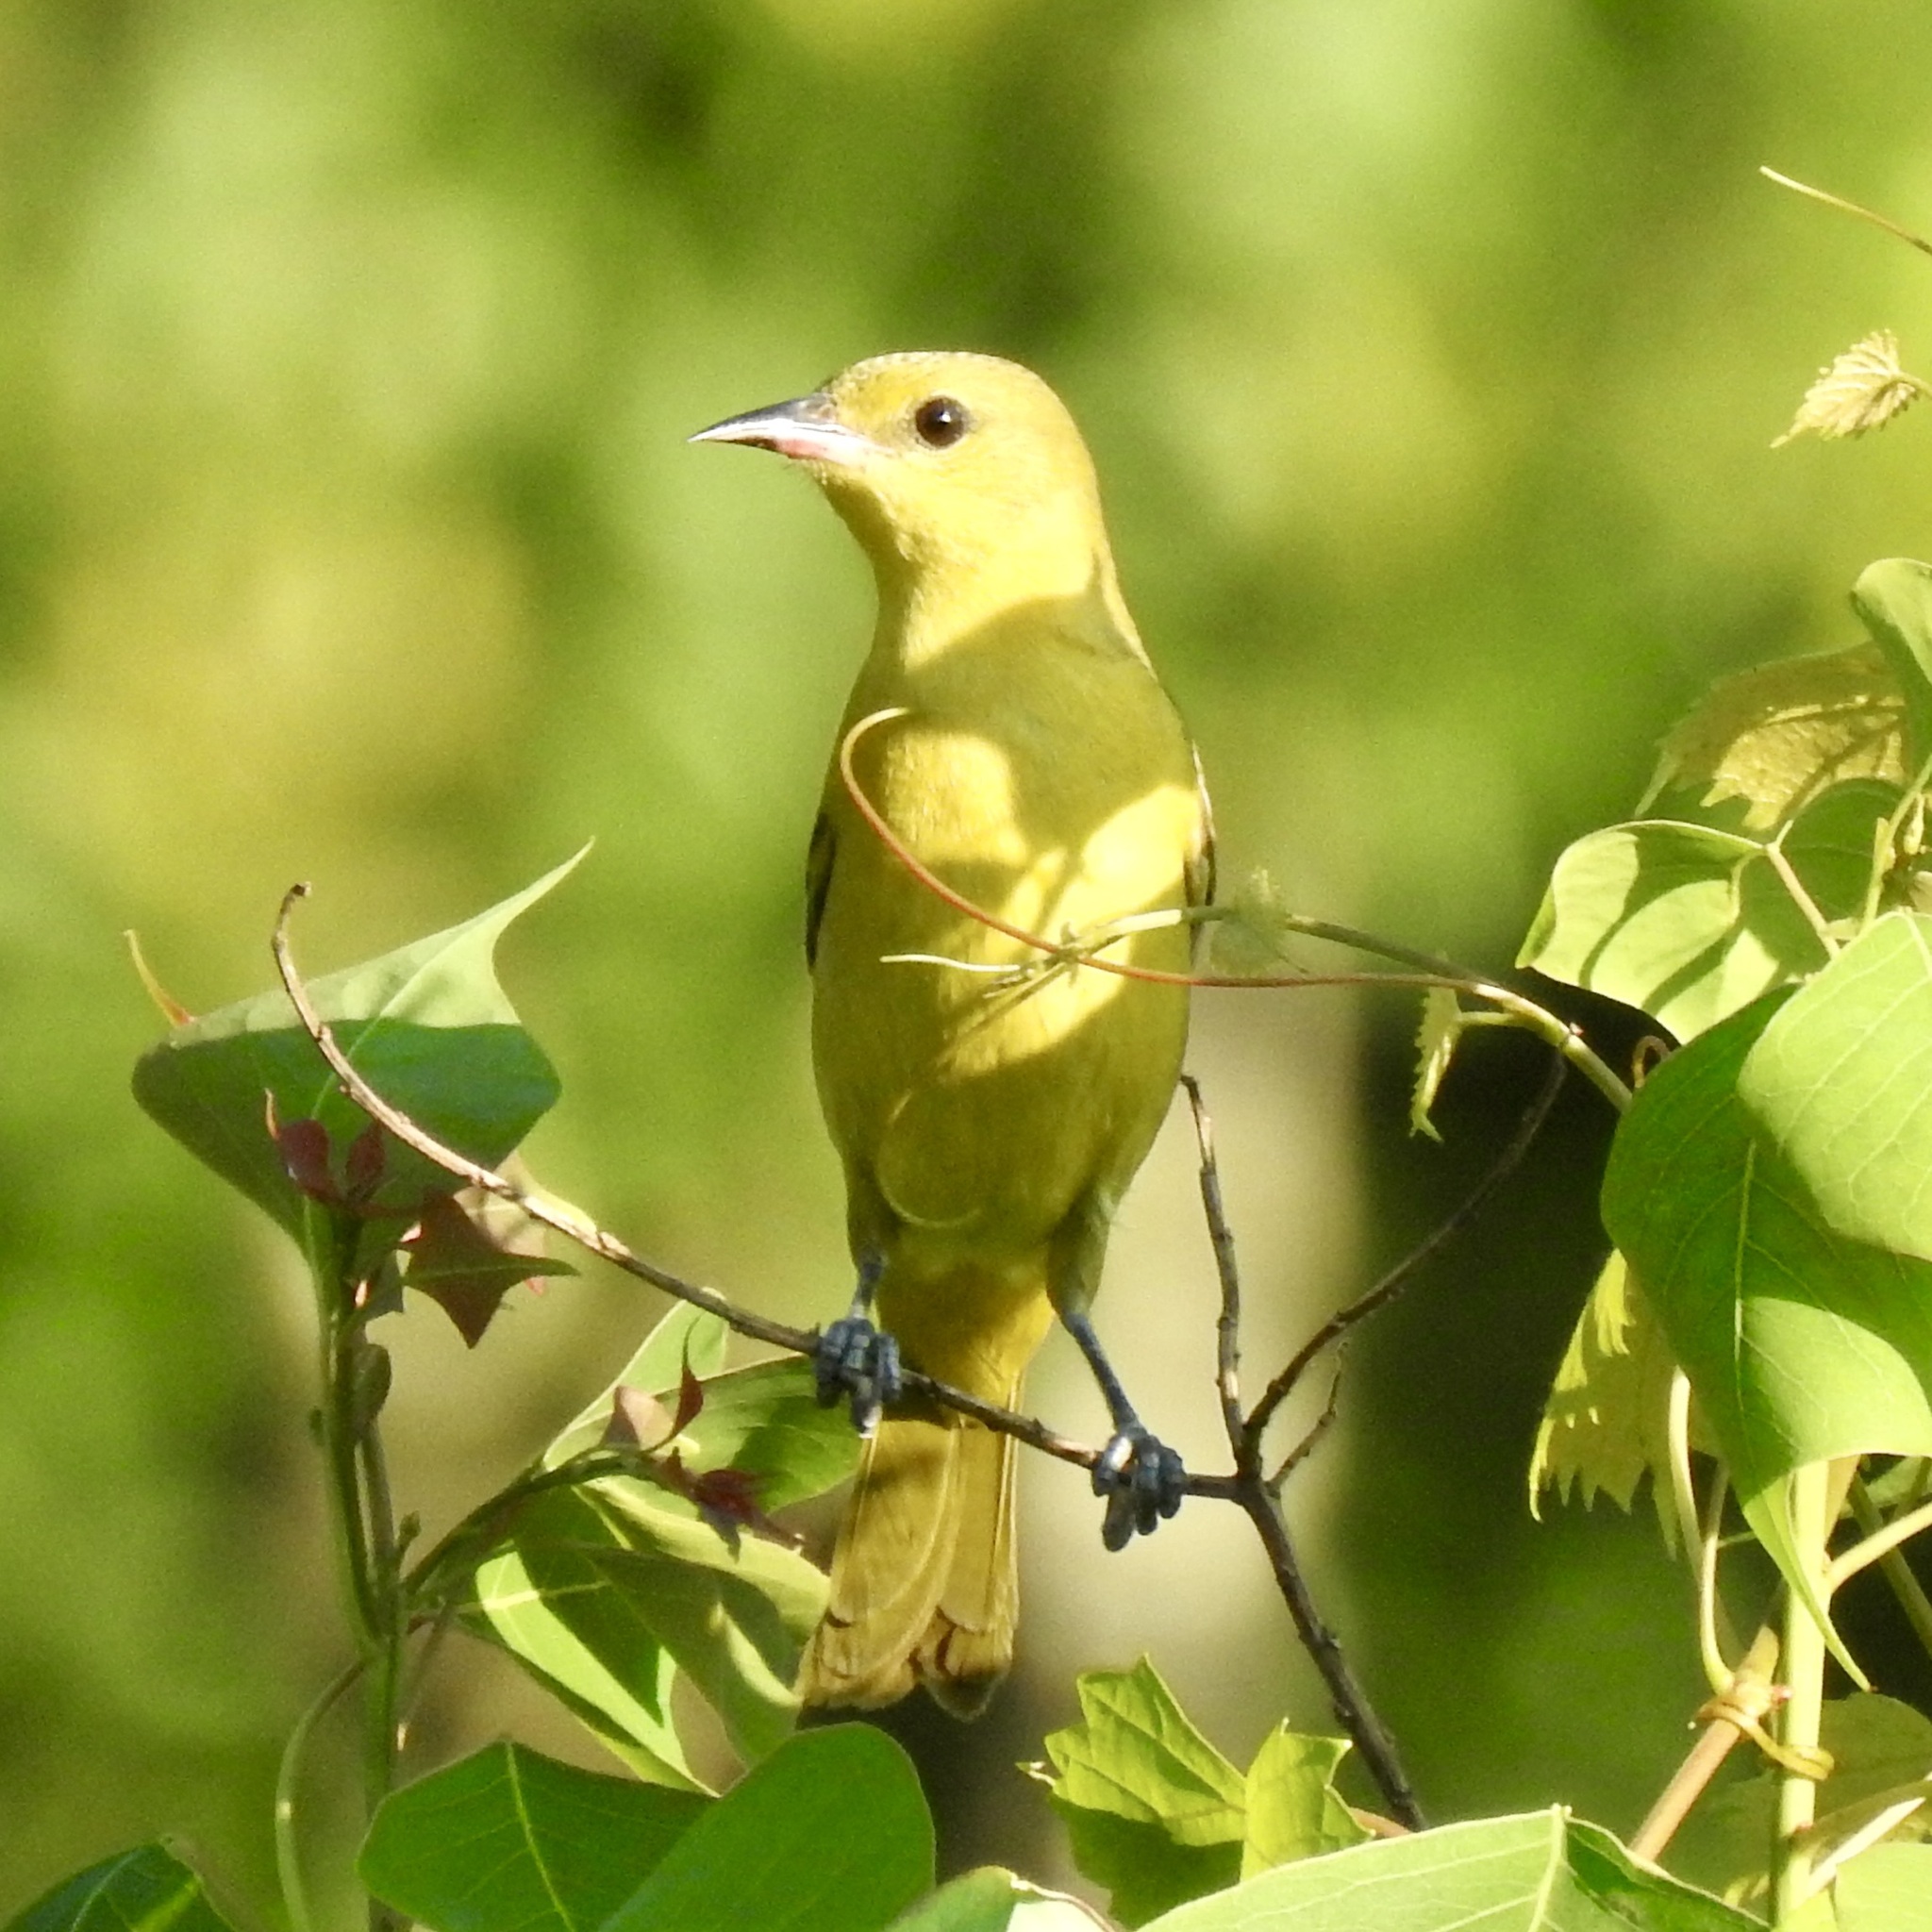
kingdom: Animalia
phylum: Chordata
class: Aves
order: Passeriformes
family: Icteridae
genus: Icterus
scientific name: Icterus spurius
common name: Orchard oriole
